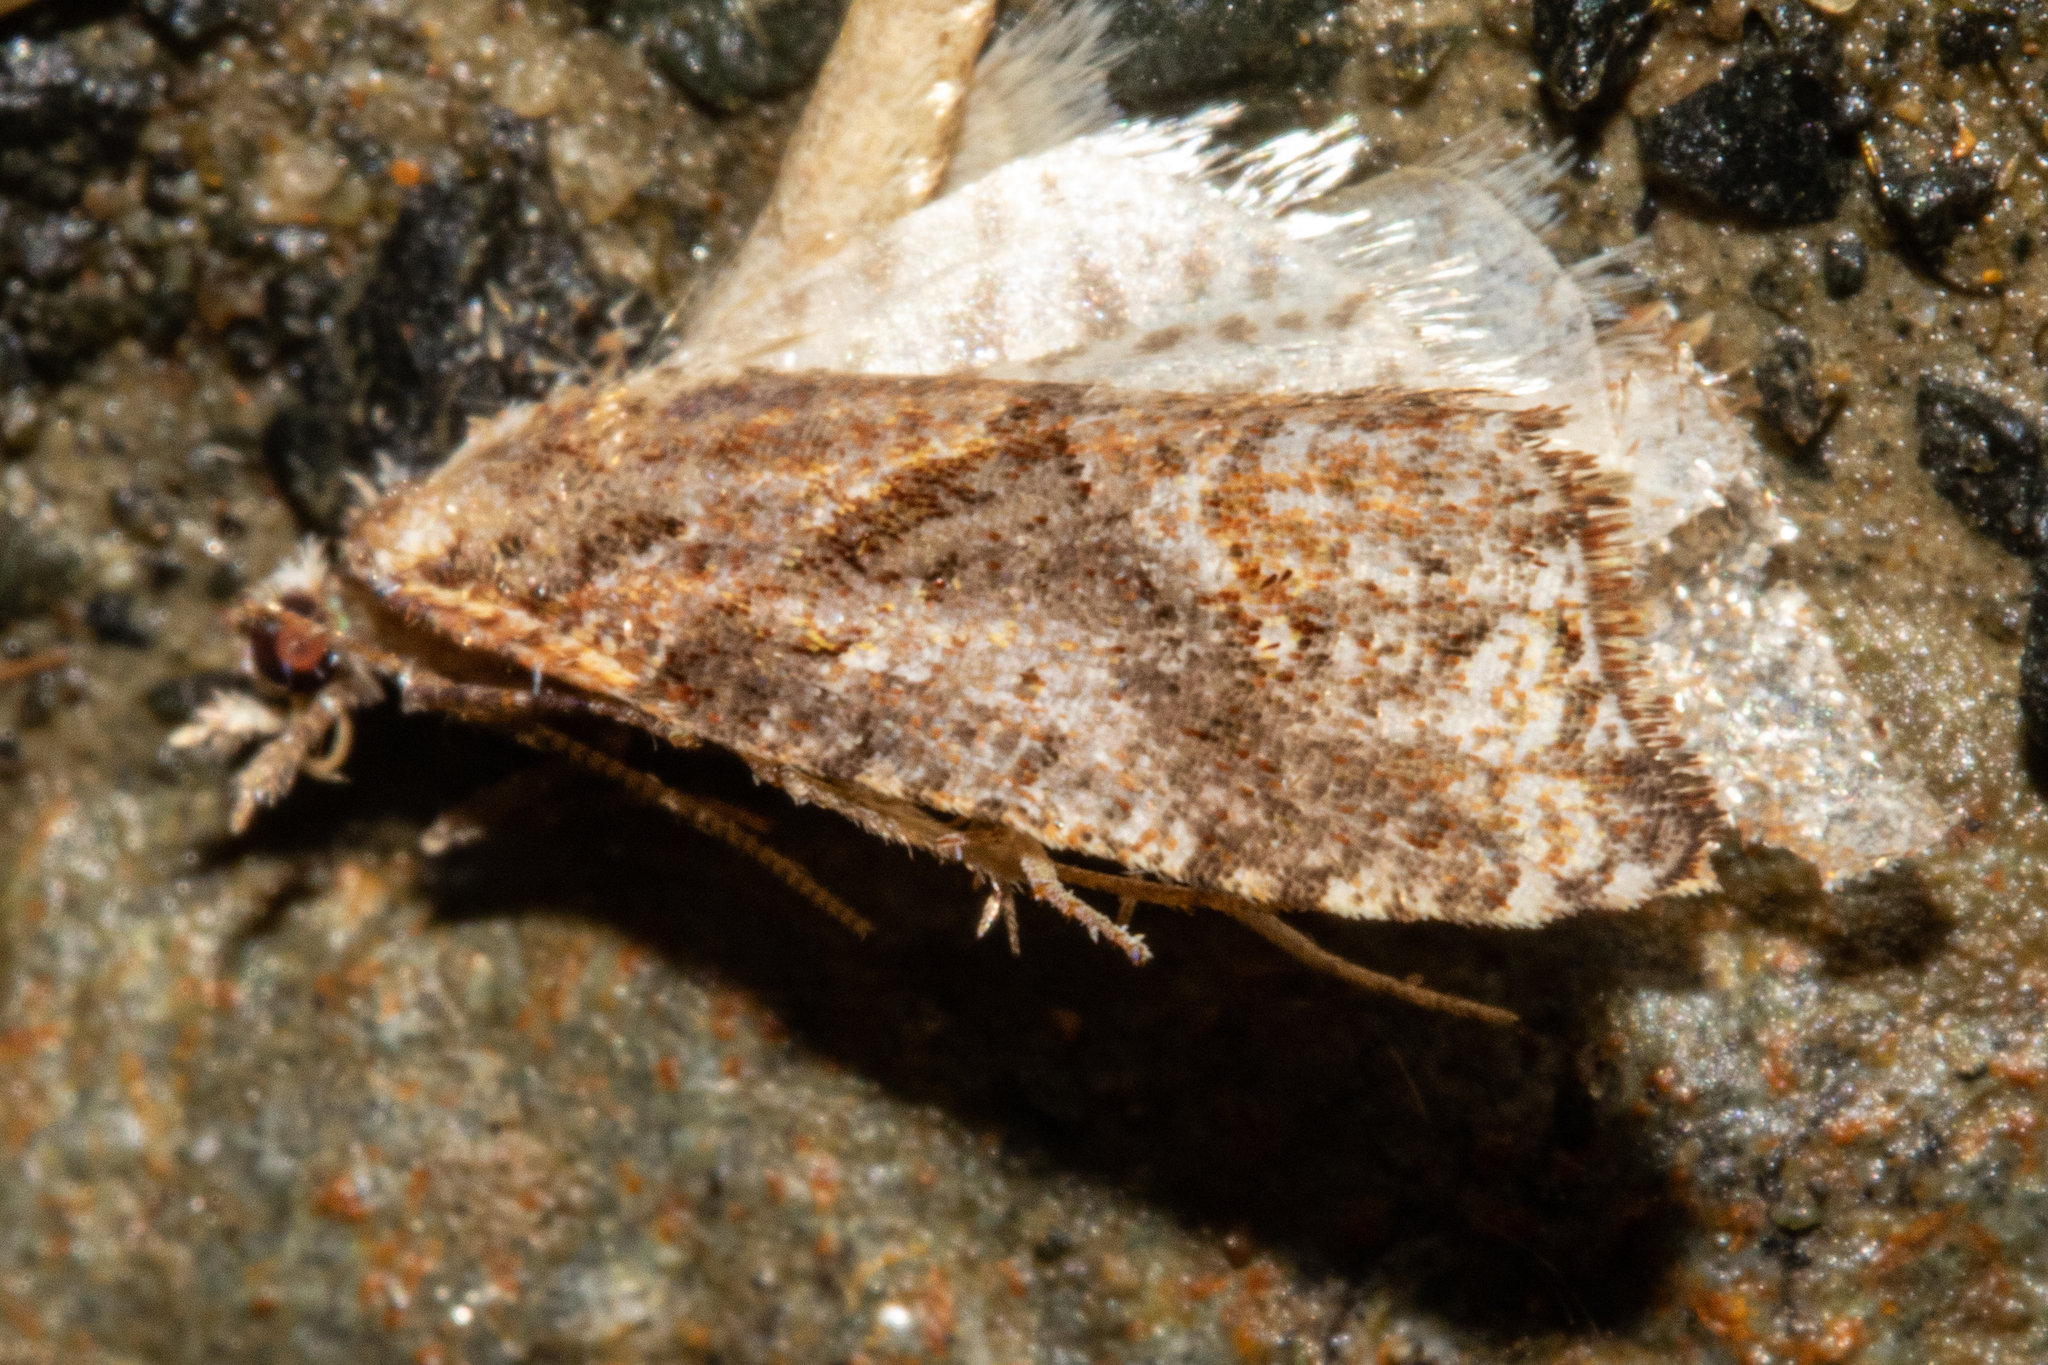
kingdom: Animalia
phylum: Arthropoda
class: Insecta
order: Lepidoptera
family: Tortricidae
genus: Pyrgotis
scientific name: Pyrgotis plagiatana
